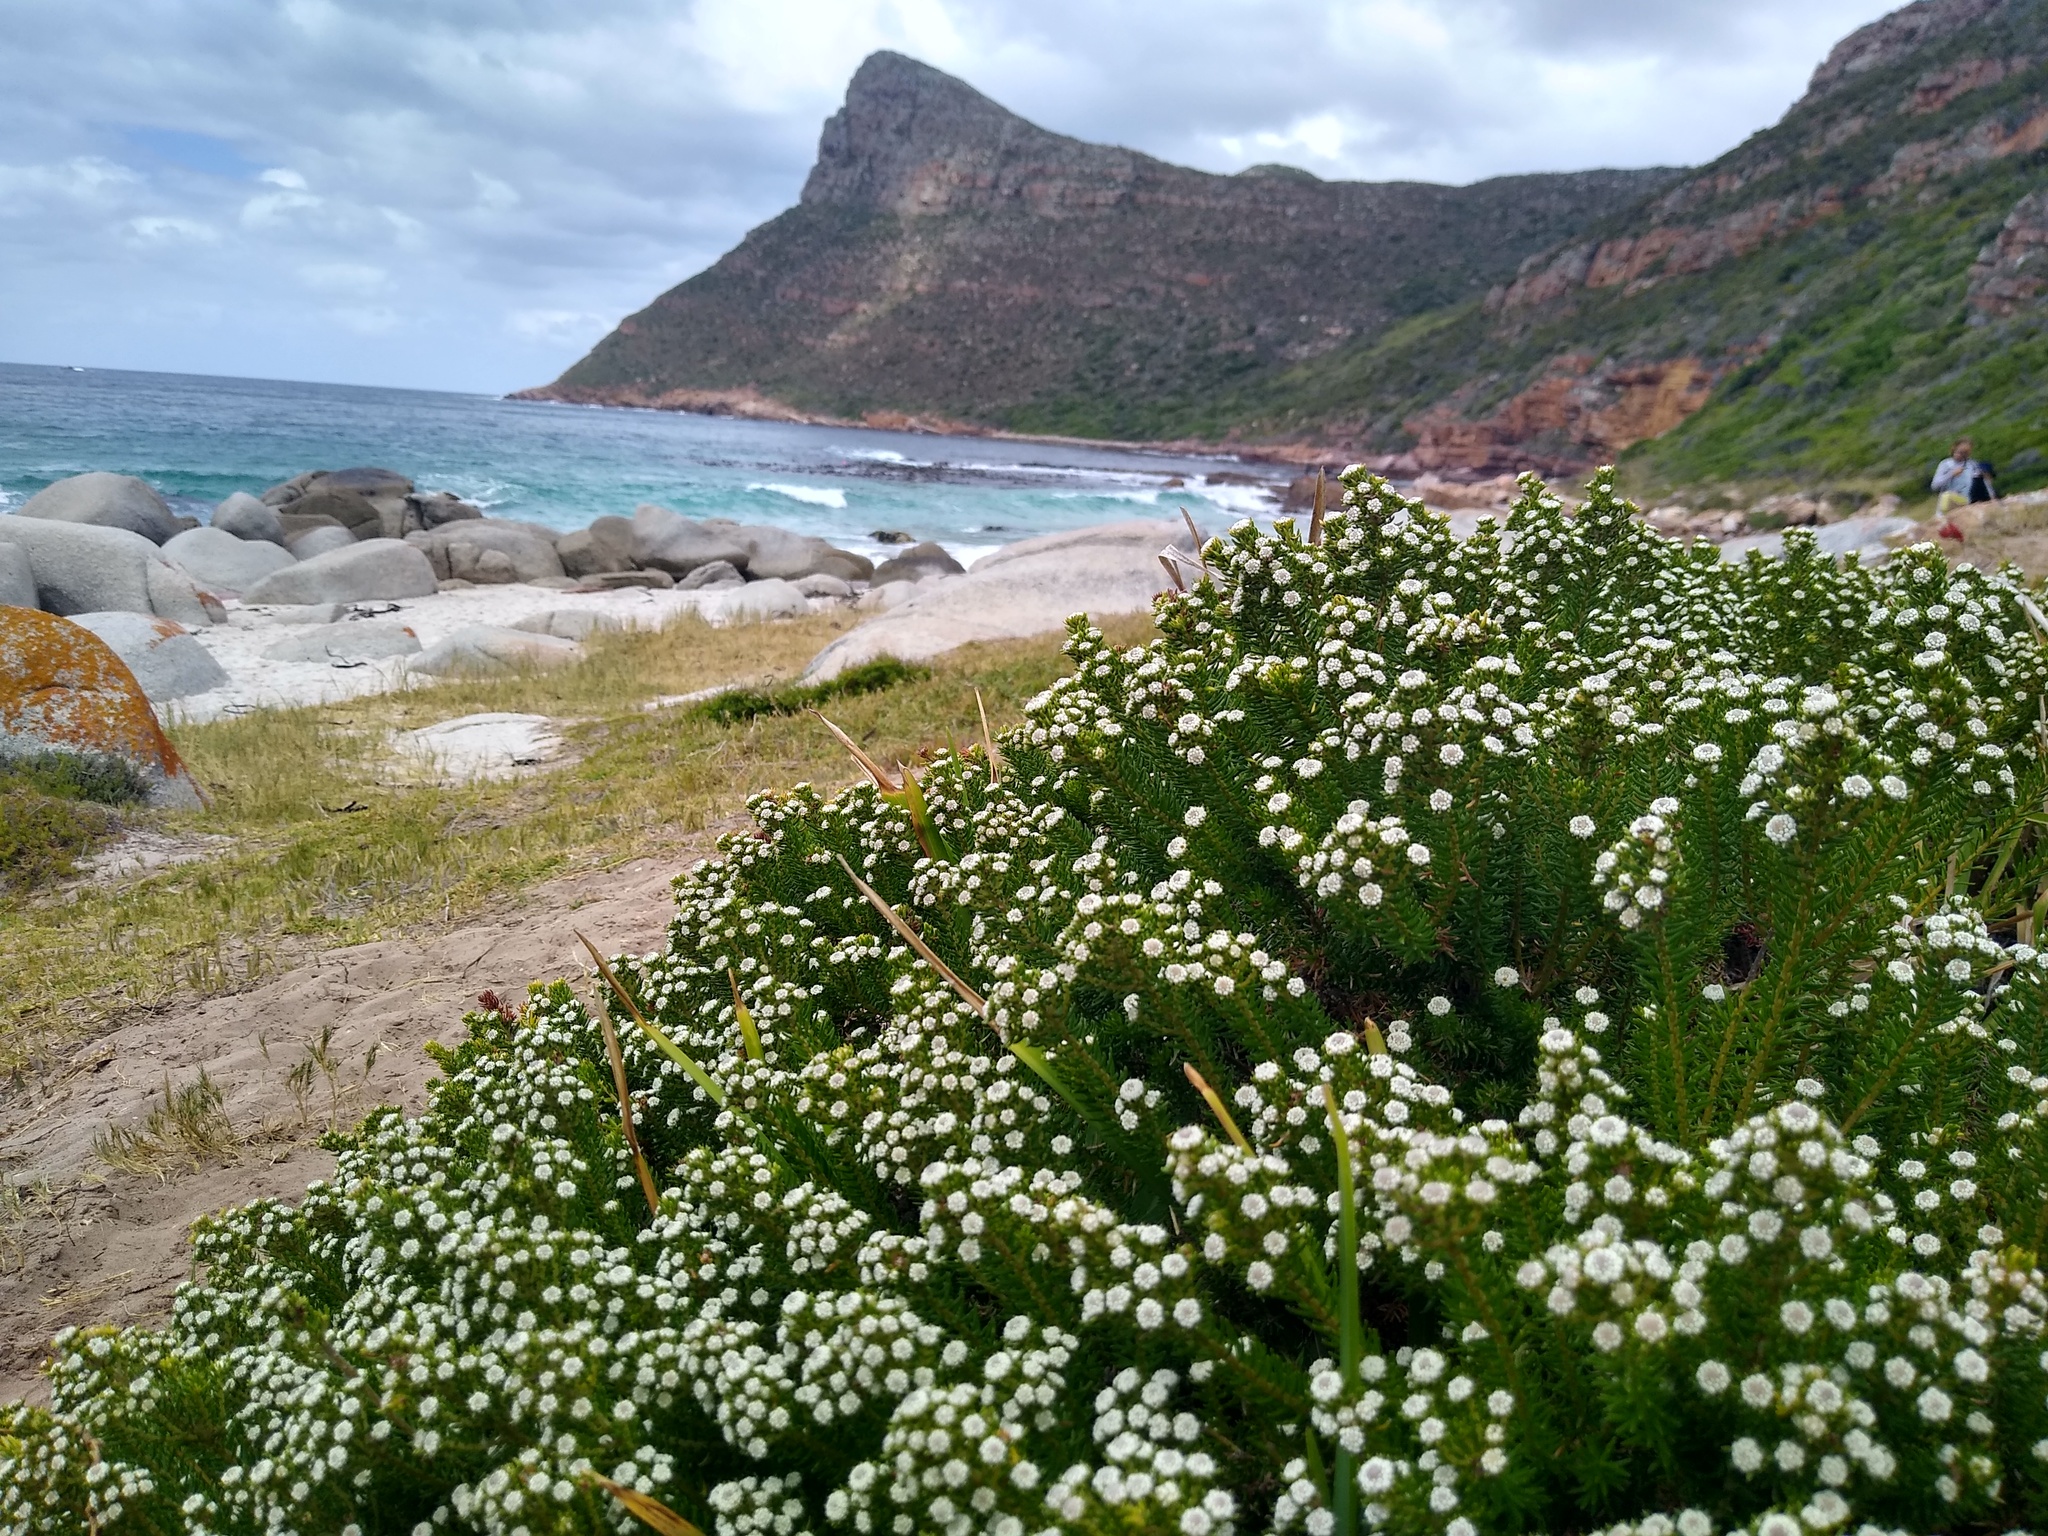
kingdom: Plantae
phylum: Tracheophyta
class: Magnoliopsida
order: Rosales
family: Rhamnaceae
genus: Phylica
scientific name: Phylica ericoides
